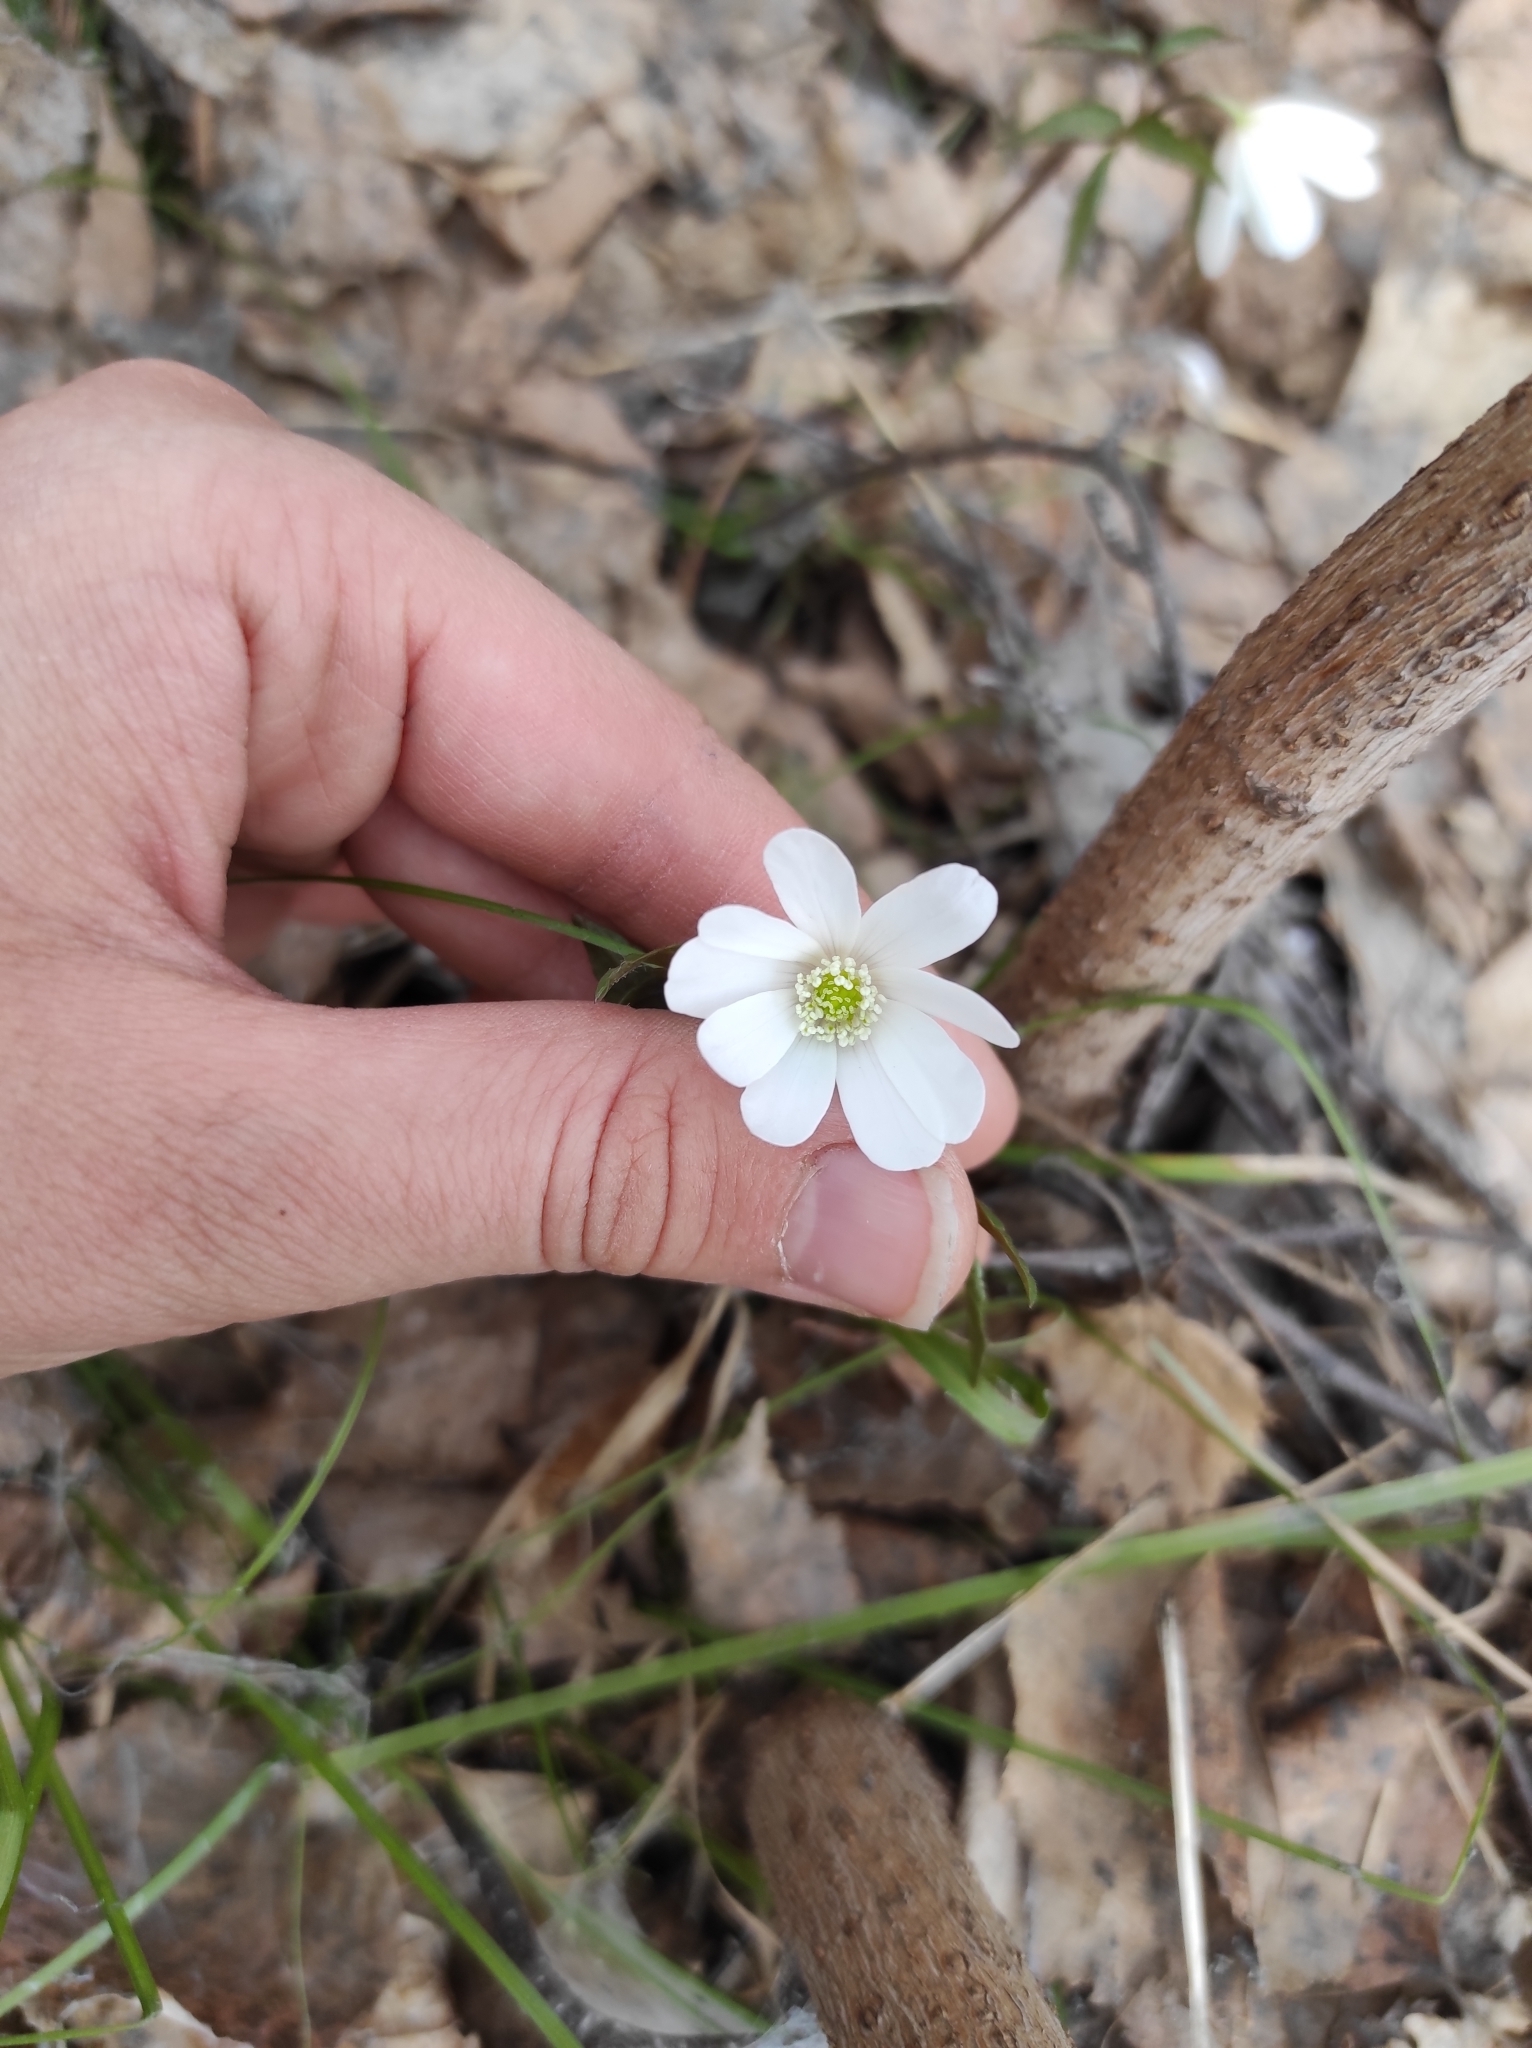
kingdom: Plantae
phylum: Tracheophyta
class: Magnoliopsida
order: Ranunculales
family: Ranunculaceae
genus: Anemone
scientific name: Anemone altaica
